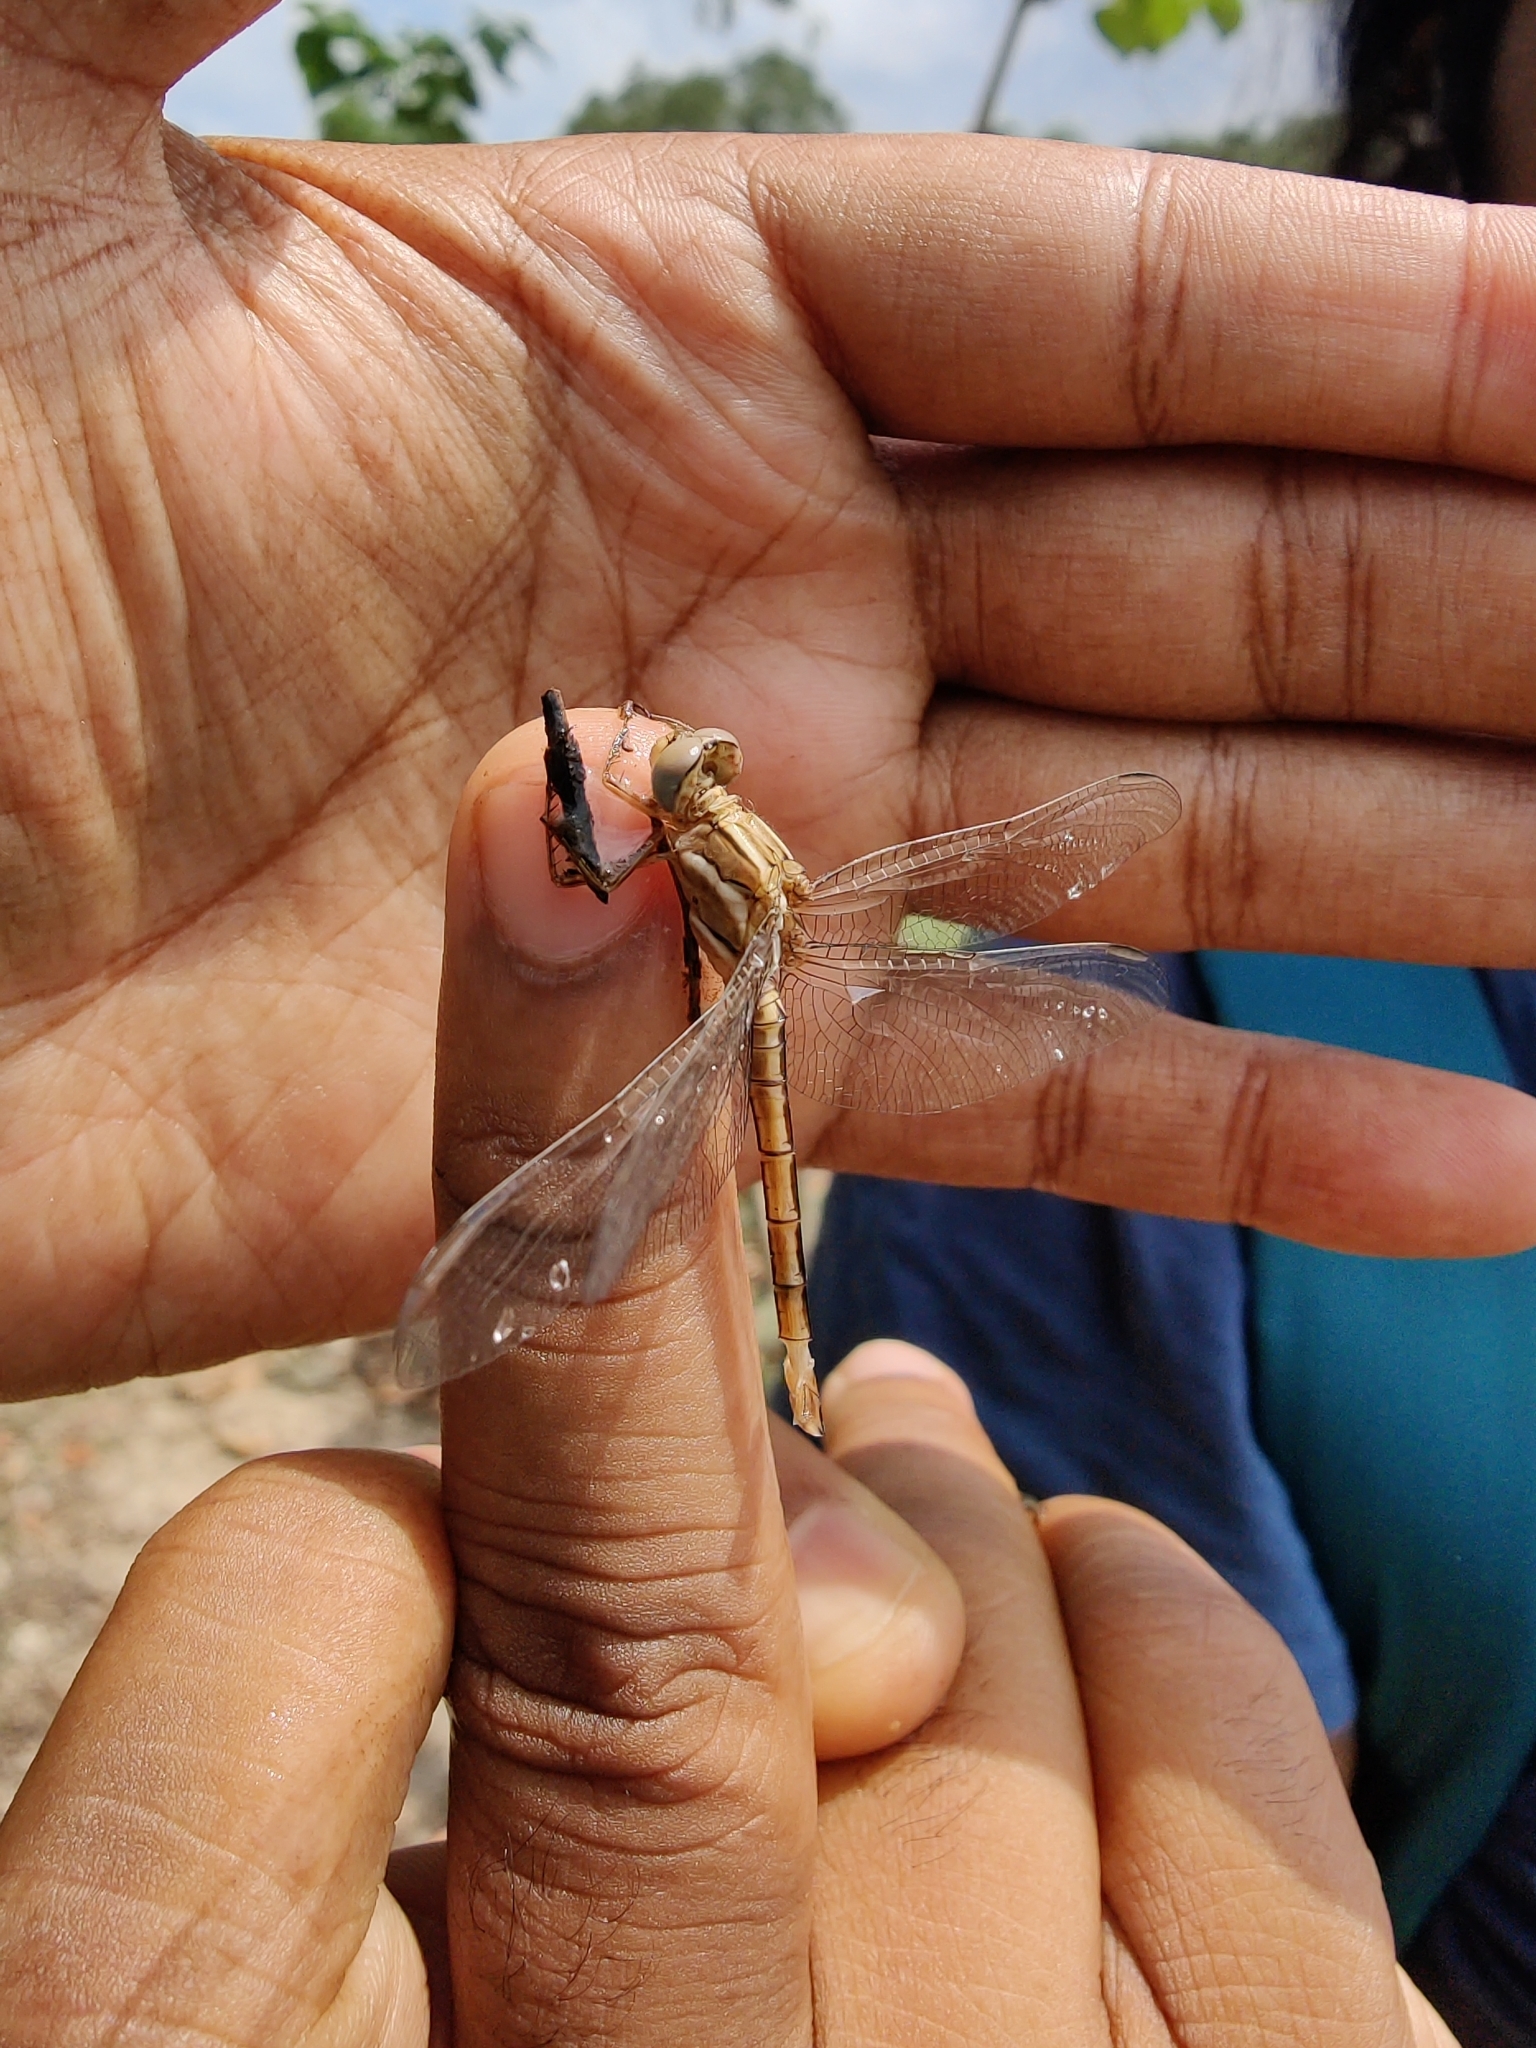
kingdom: Animalia
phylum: Arthropoda
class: Insecta
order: Odonata
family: Libellulidae
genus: Orthetrum
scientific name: Orthetrum taeniolatum
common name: Small skimmer
